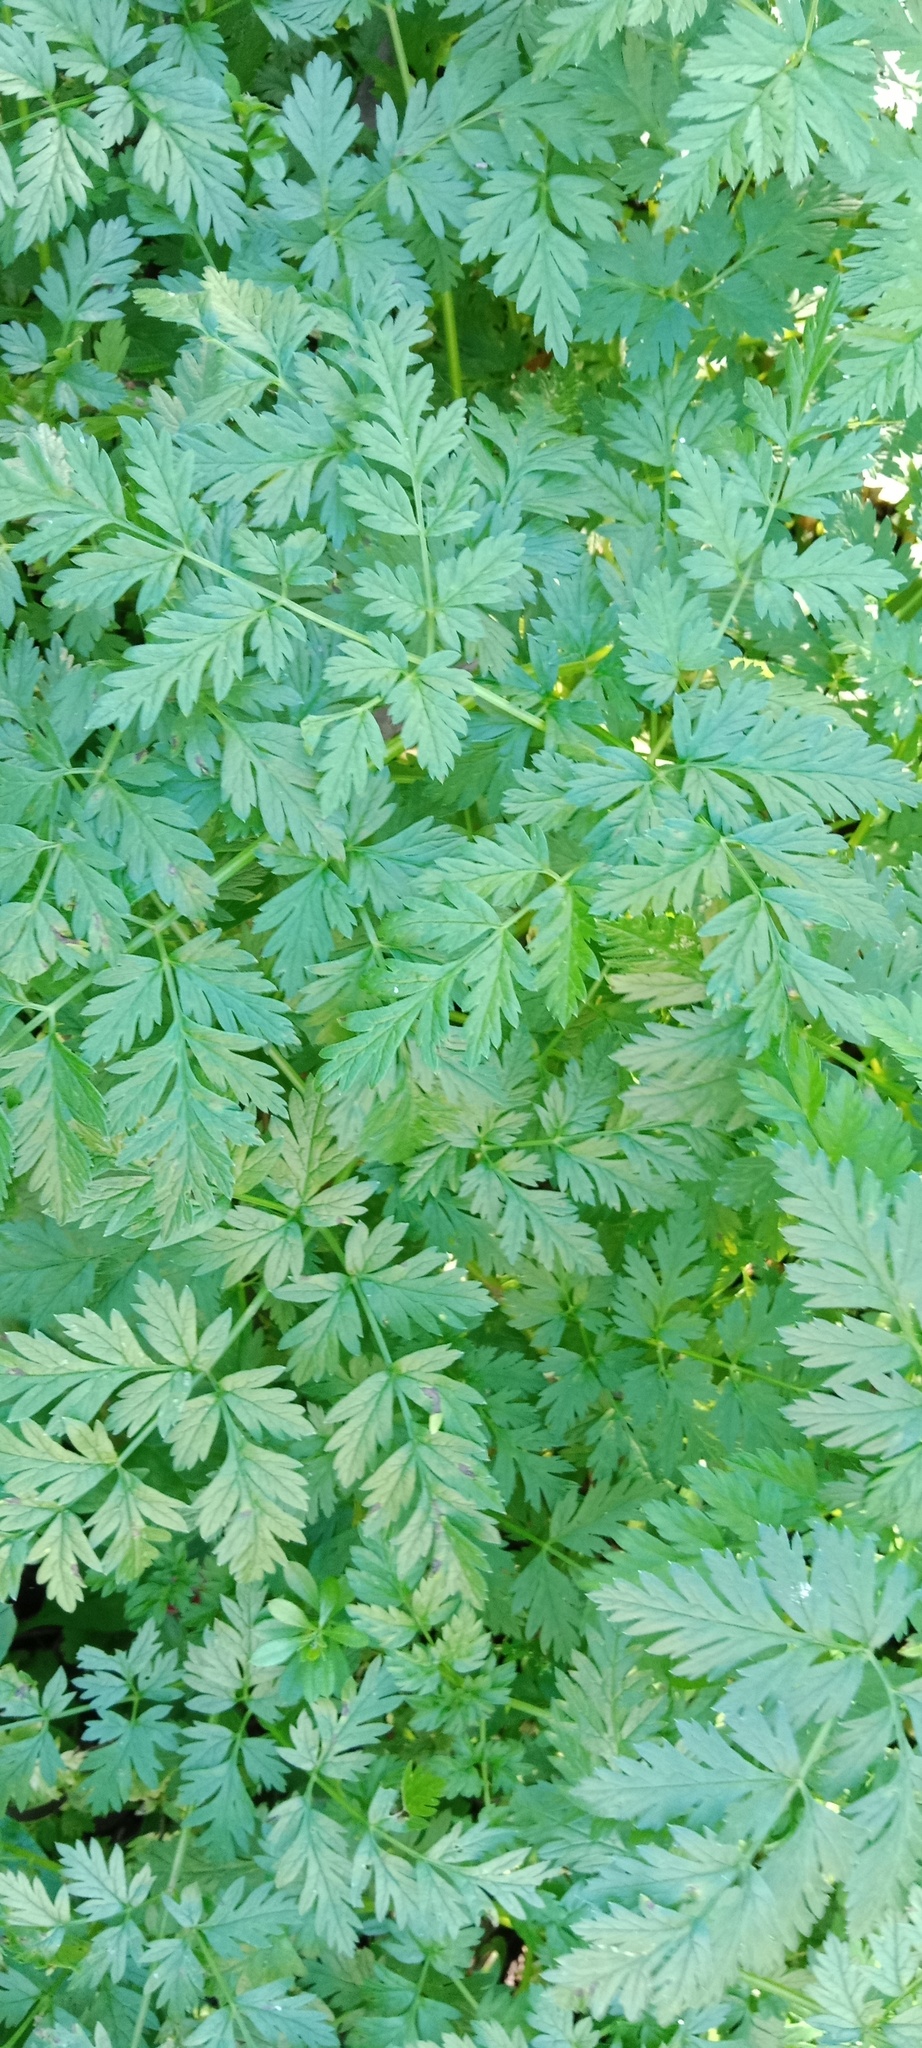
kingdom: Plantae
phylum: Tracheophyta
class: Magnoliopsida
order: Apiales
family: Apiaceae
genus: Anthriscus
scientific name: Anthriscus sylvestris
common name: Cow parsley
